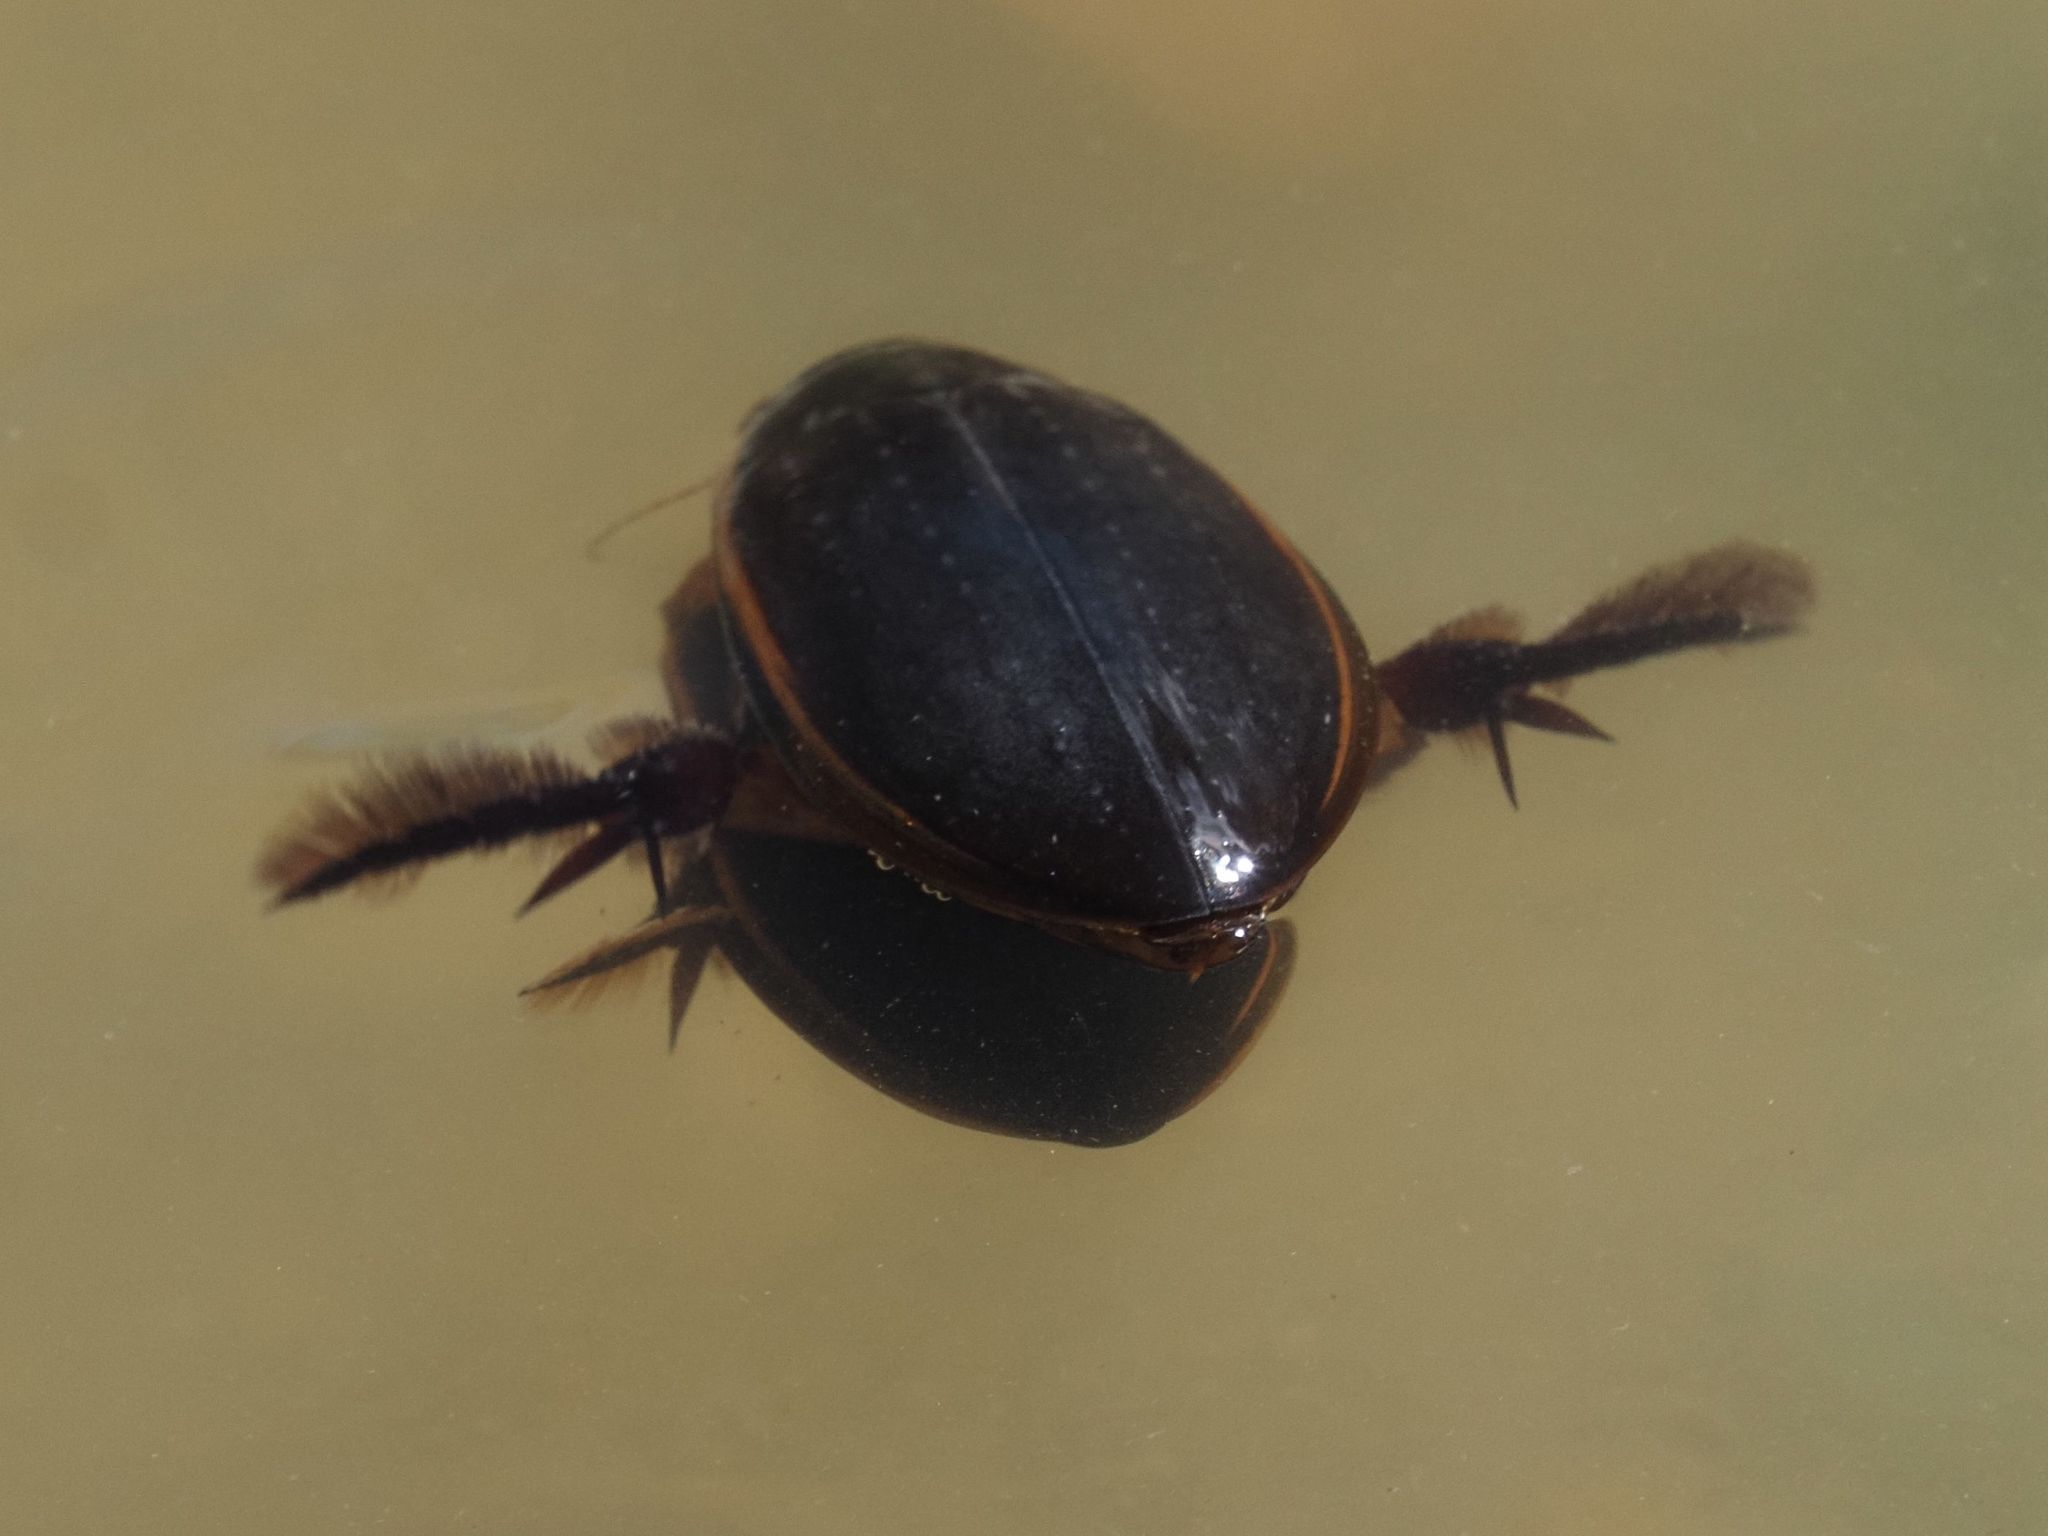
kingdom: Animalia
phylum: Arthropoda
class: Insecta
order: Coleoptera
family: Dytiscidae
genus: Cybister
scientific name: Cybister lateralimarginalis
